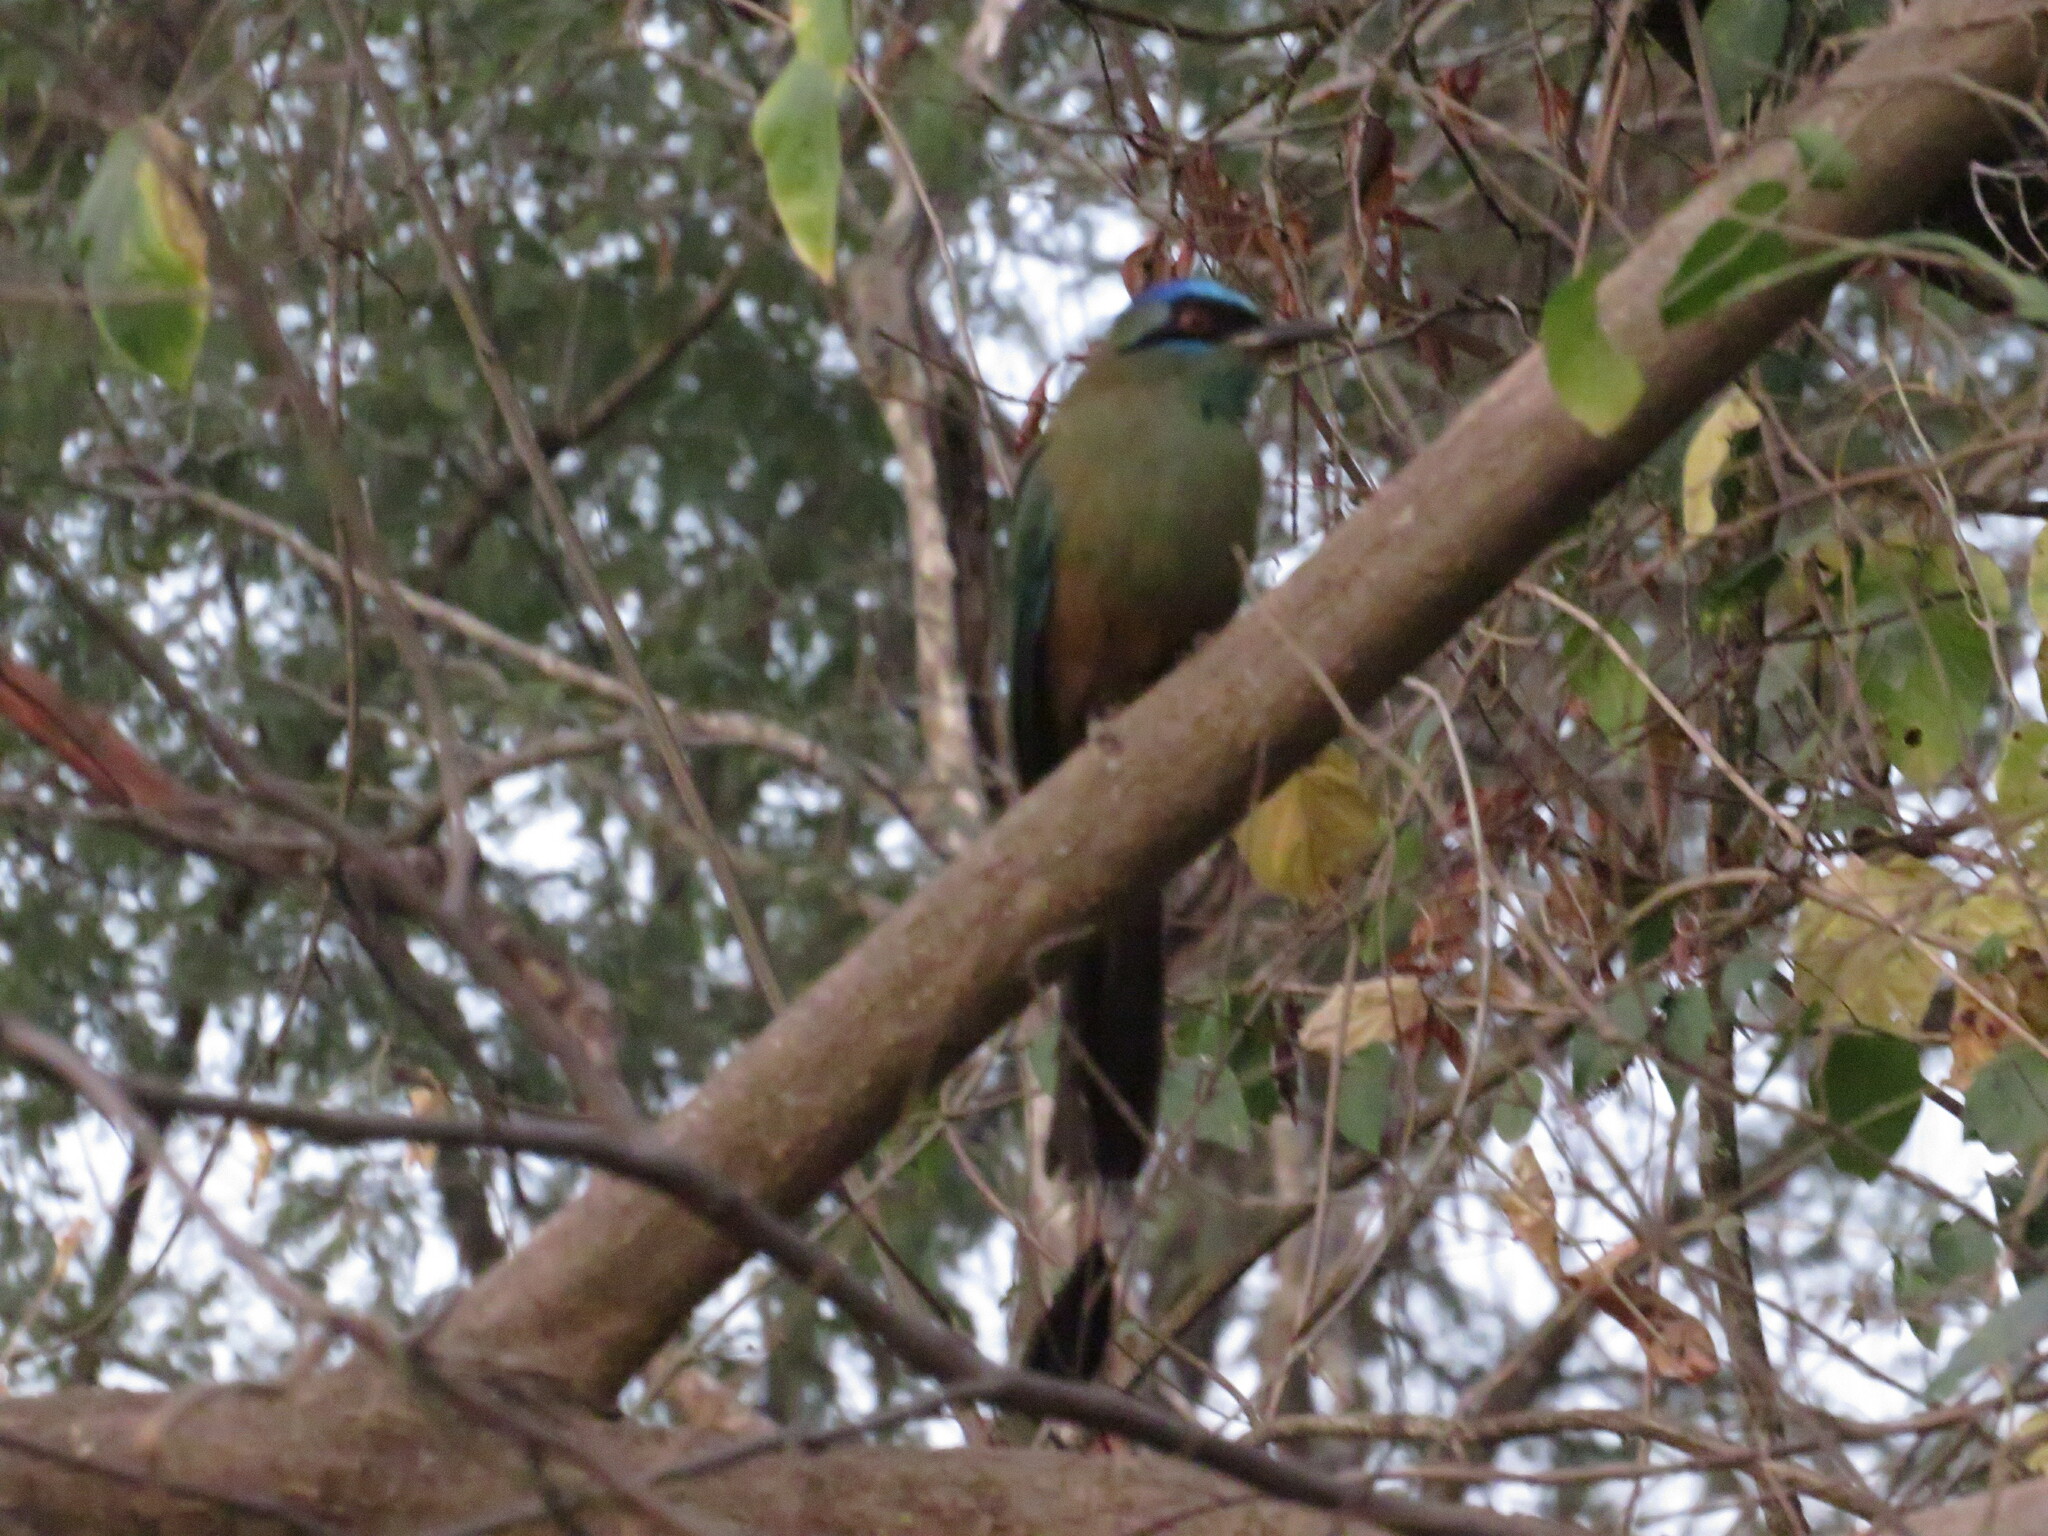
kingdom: Animalia
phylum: Chordata
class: Aves
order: Coraciiformes
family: Momotidae
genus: Momotus
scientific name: Momotus momota
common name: Amazonian motmot
